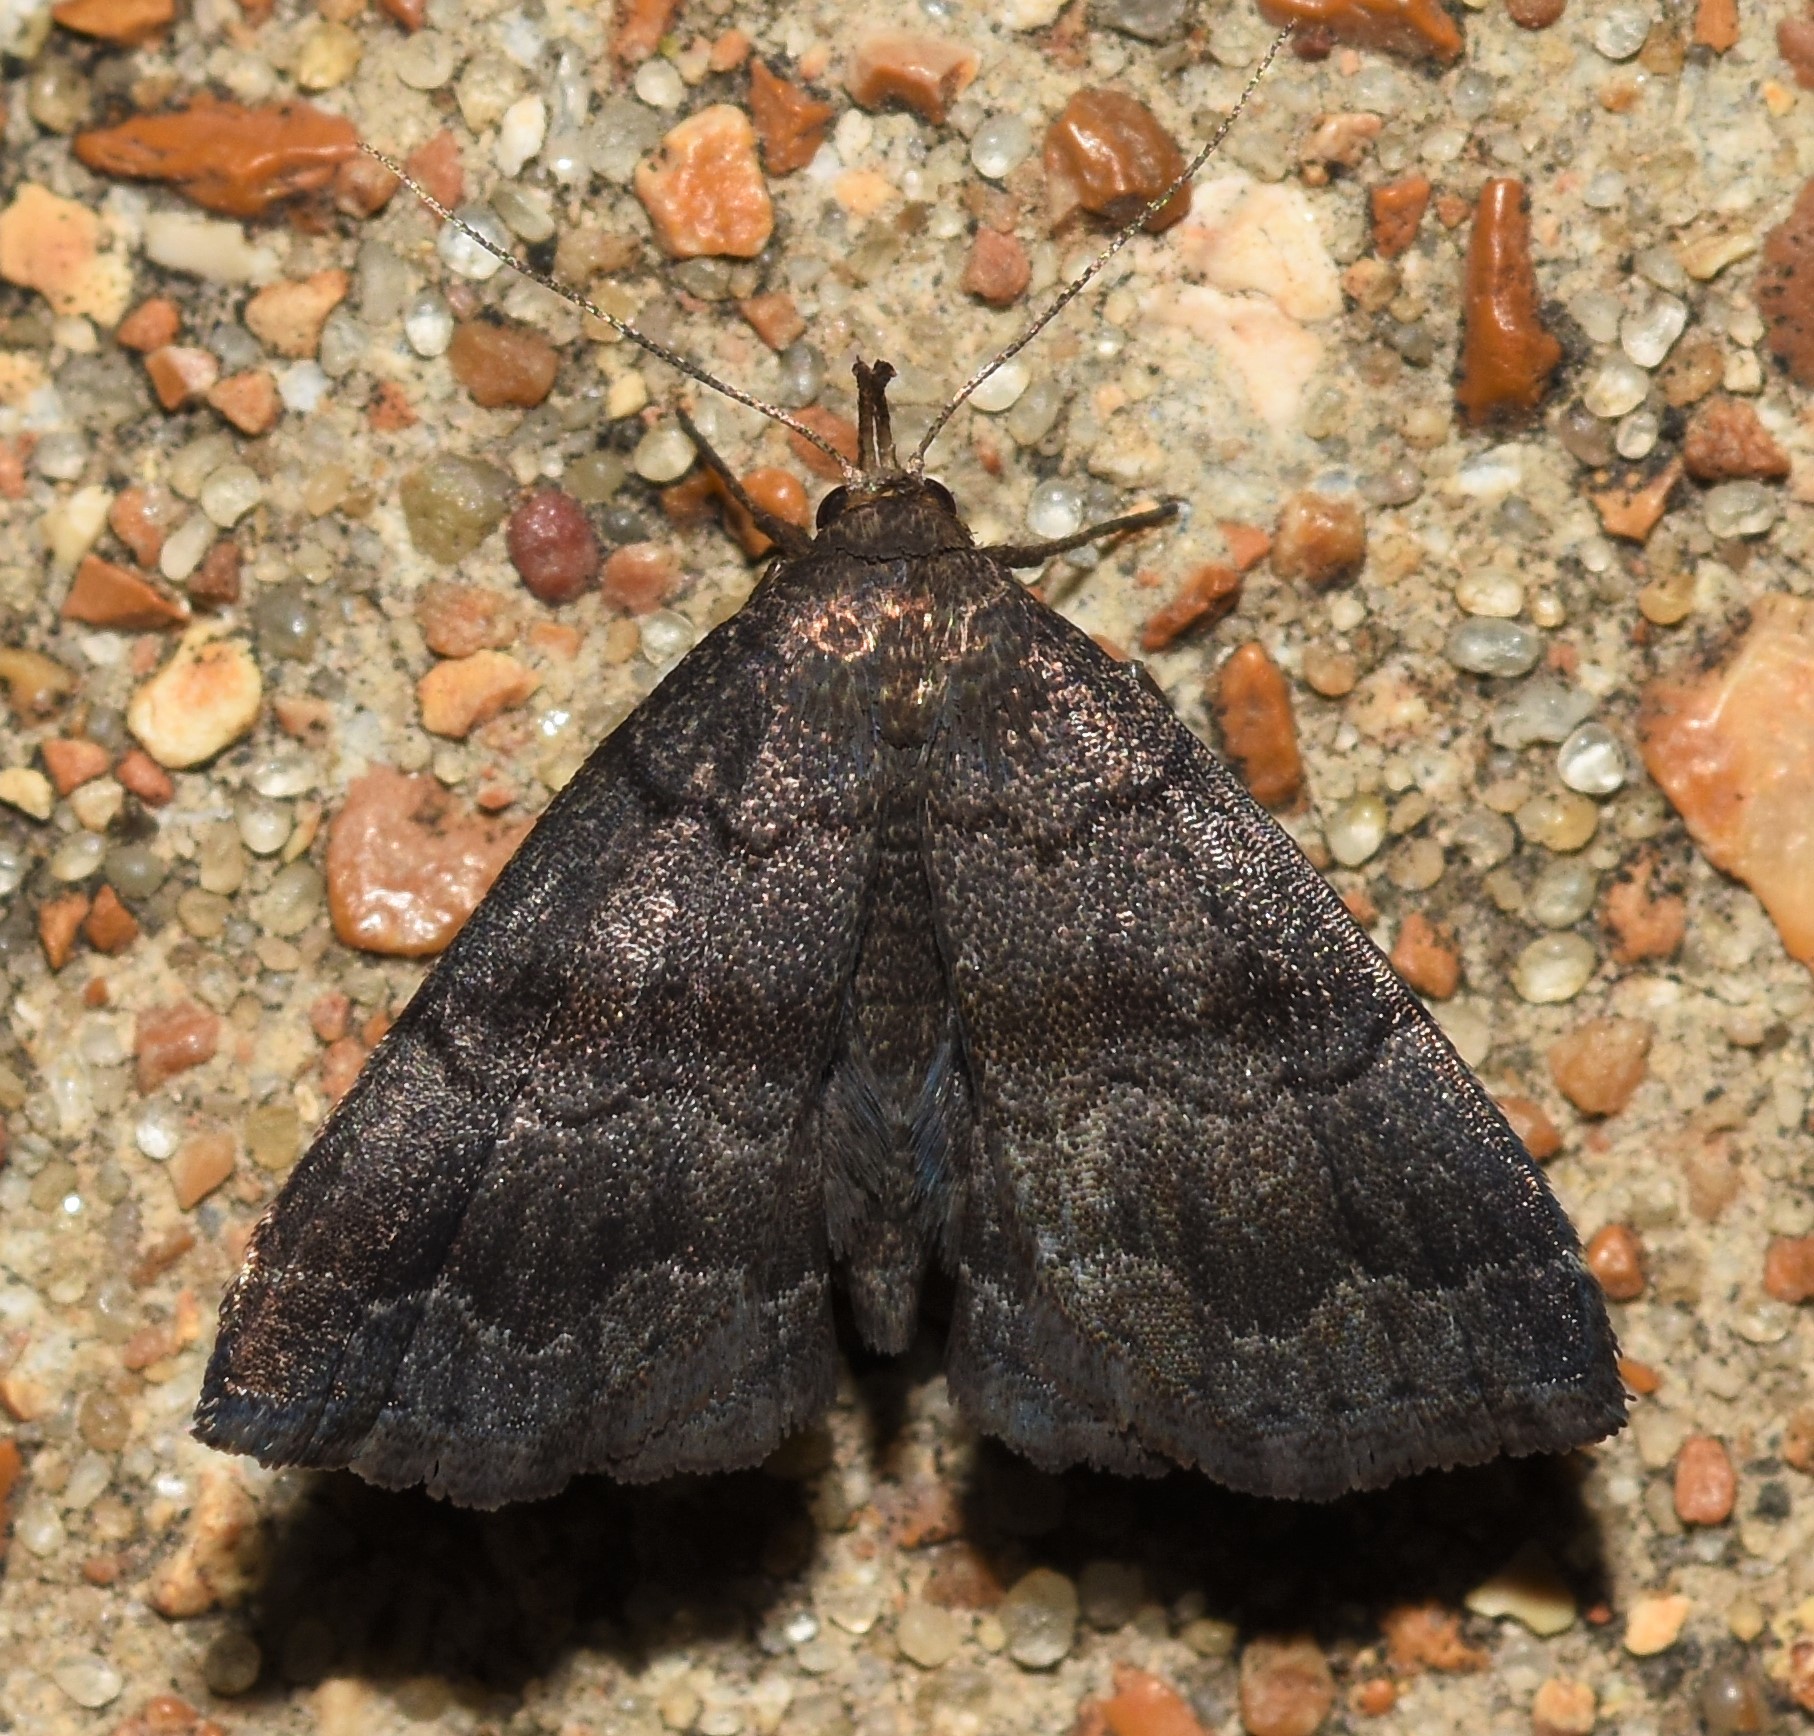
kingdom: Animalia
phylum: Arthropoda
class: Insecta
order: Lepidoptera
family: Erebidae
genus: Phalaenostola
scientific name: Phalaenostola larentioides
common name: Black-banded owlet
